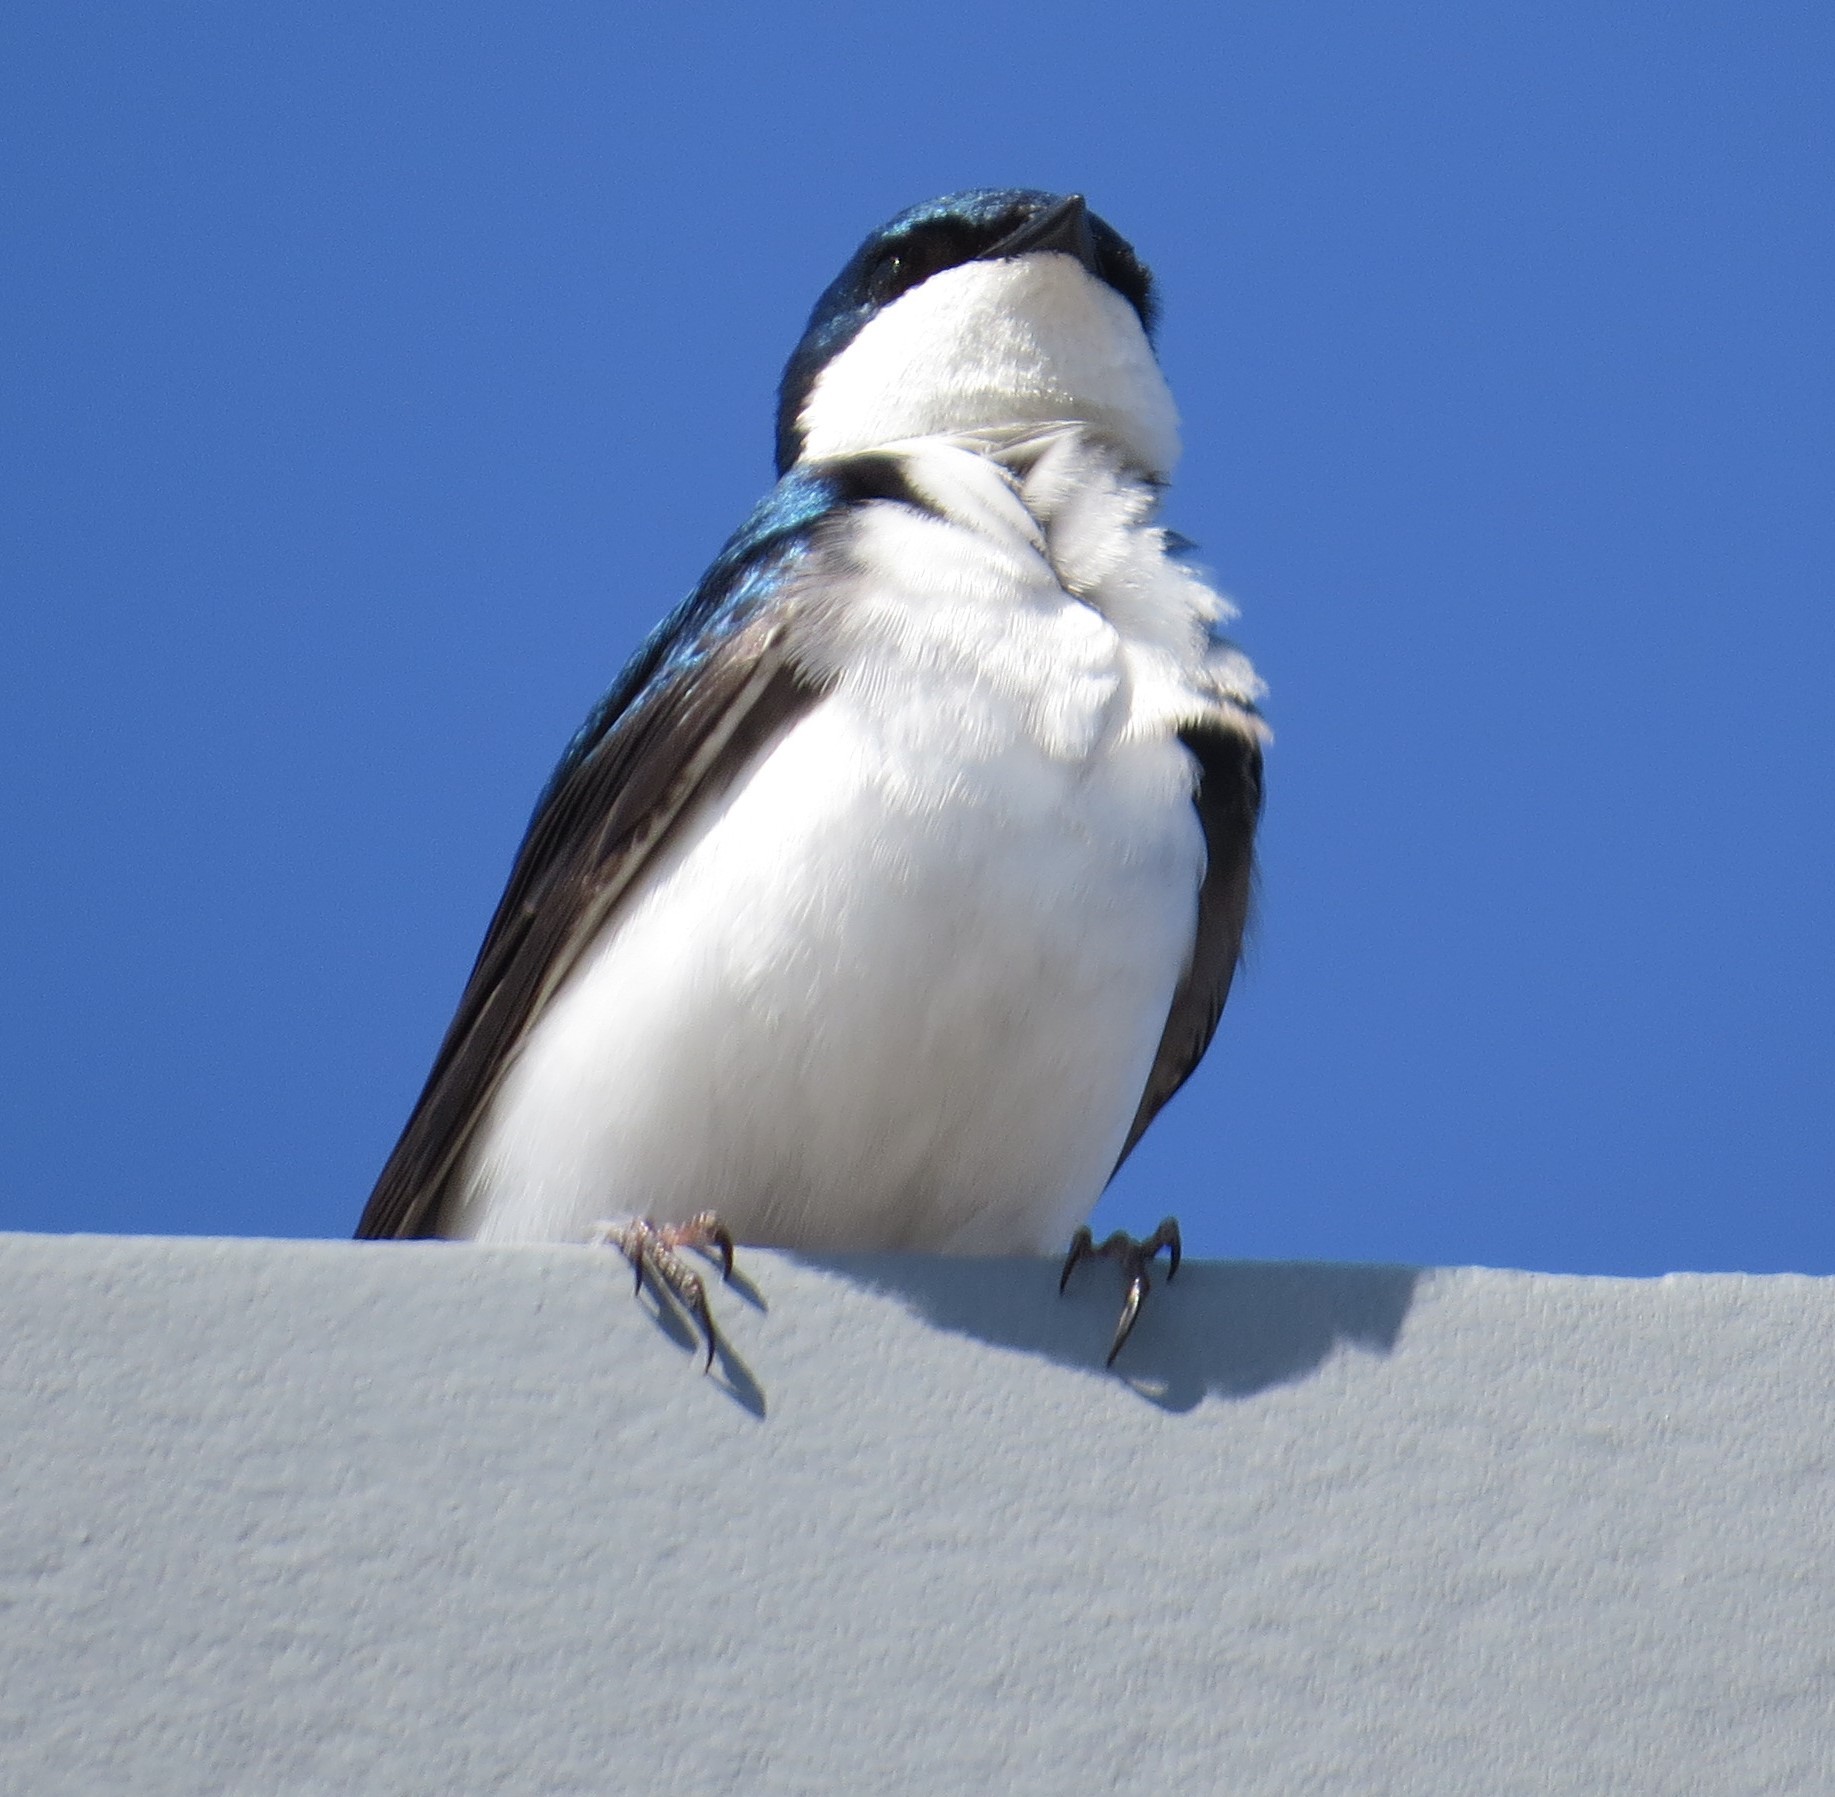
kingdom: Animalia
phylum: Chordata
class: Aves
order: Passeriformes
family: Hirundinidae
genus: Tachycineta
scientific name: Tachycineta bicolor
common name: Tree swallow
